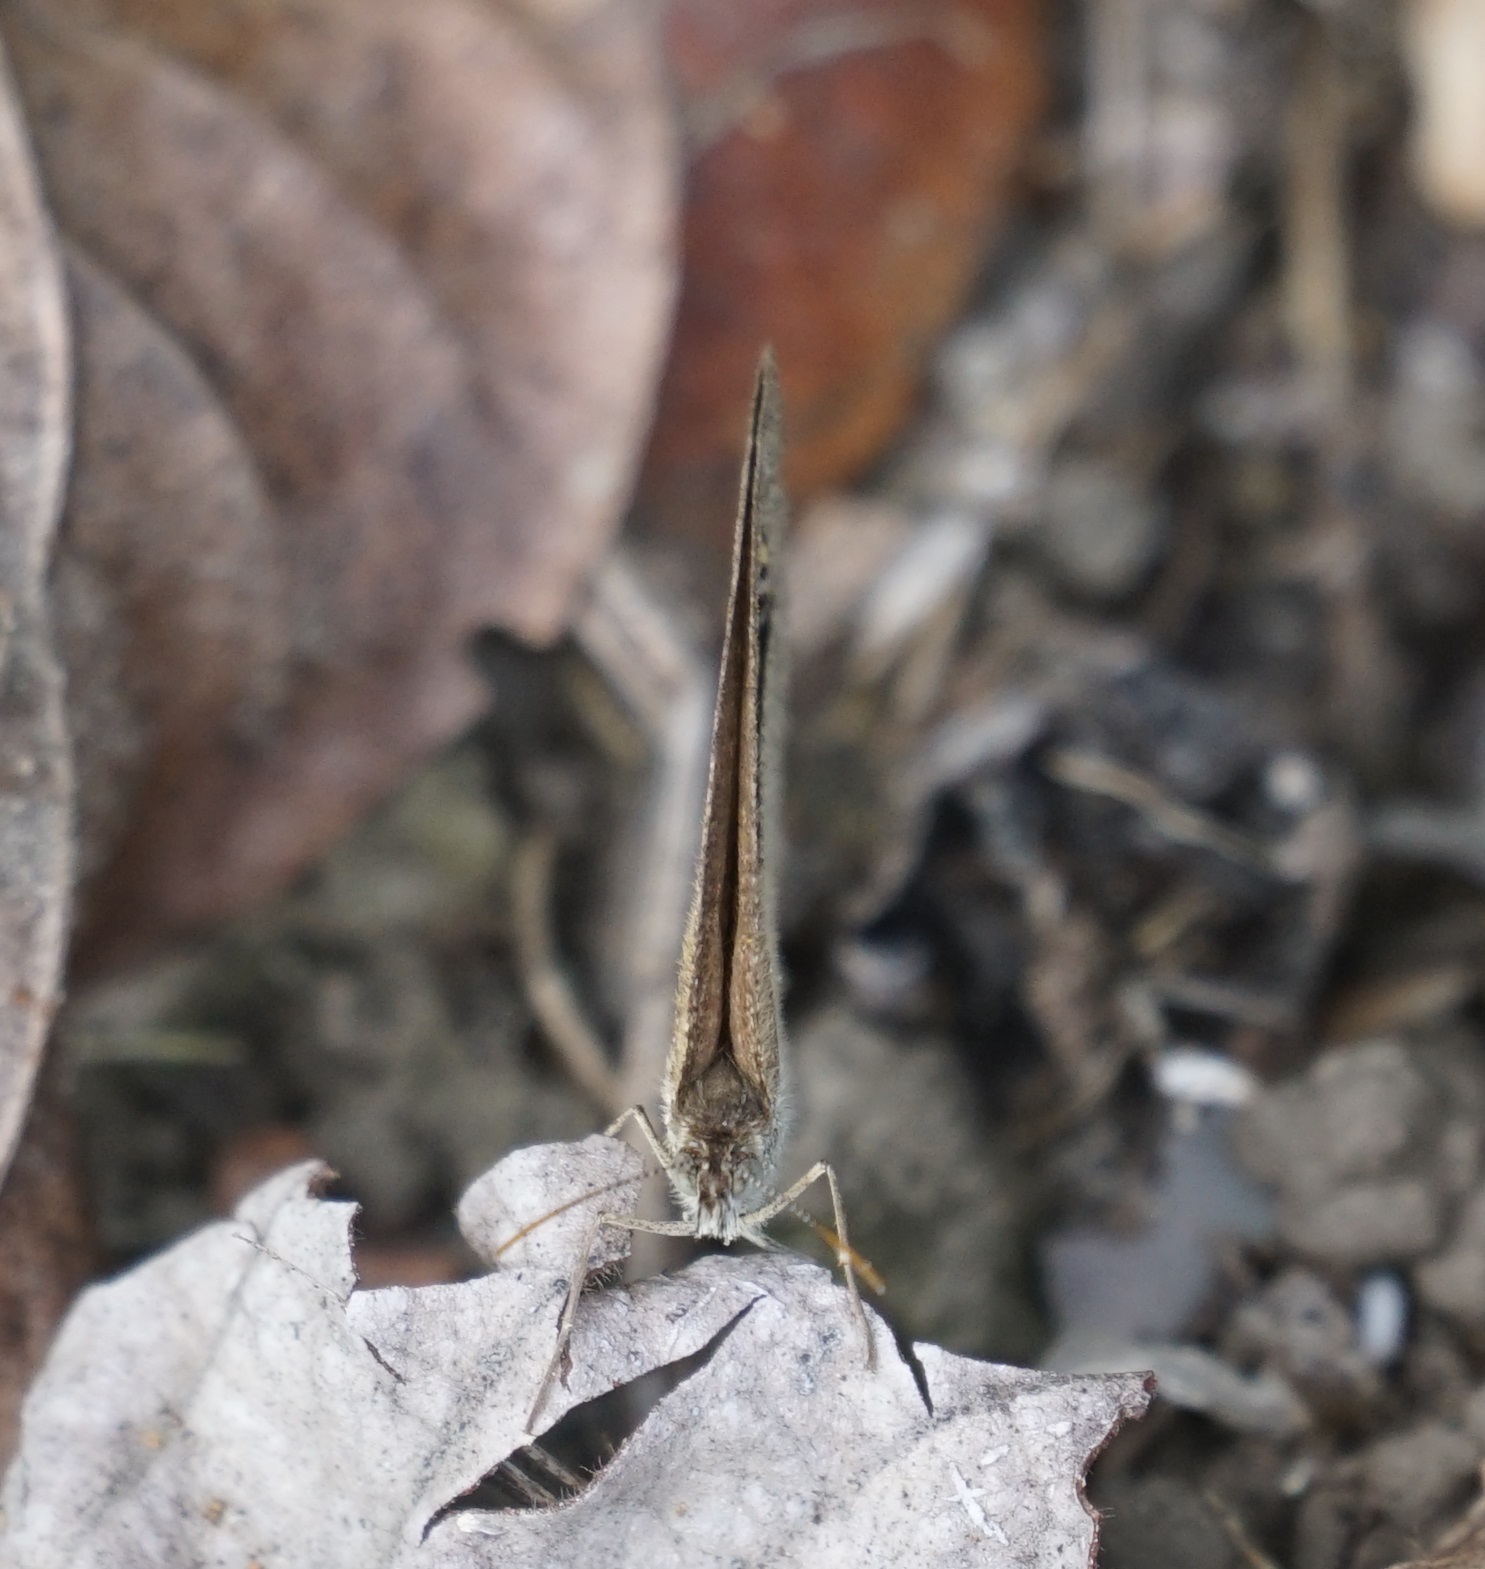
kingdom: Animalia
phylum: Arthropoda
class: Insecta
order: Lepidoptera
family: Nymphalidae
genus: Ypthima
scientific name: Ypthima arctous
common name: Dusky knight
